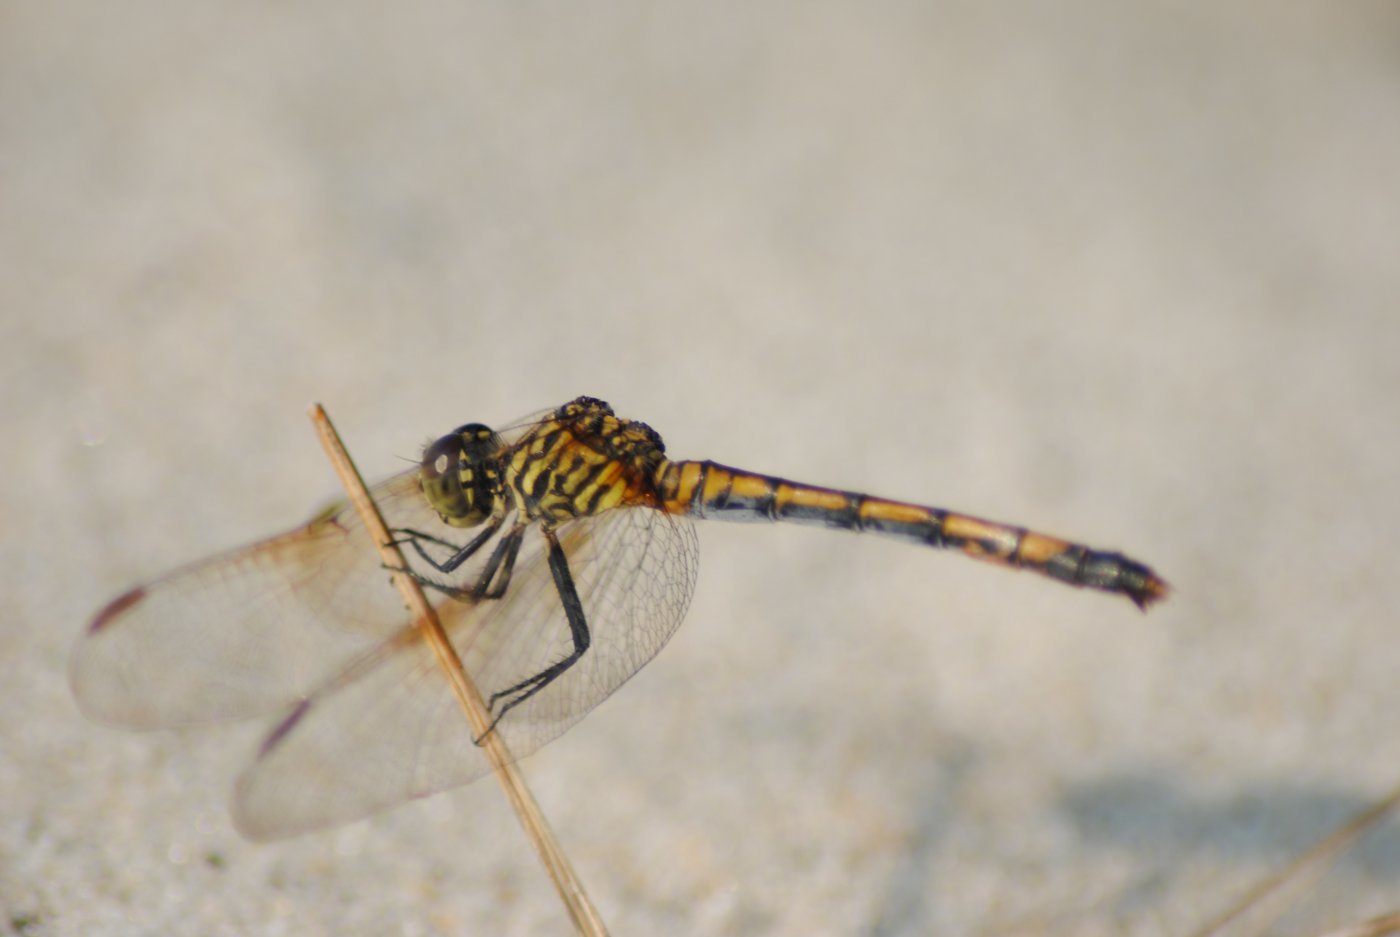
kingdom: Animalia
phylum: Arthropoda
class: Insecta
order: Odonata
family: Libellulidae
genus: Erythrodiplax
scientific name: Erythrodiplax berenice
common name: Seaside dragonlet
